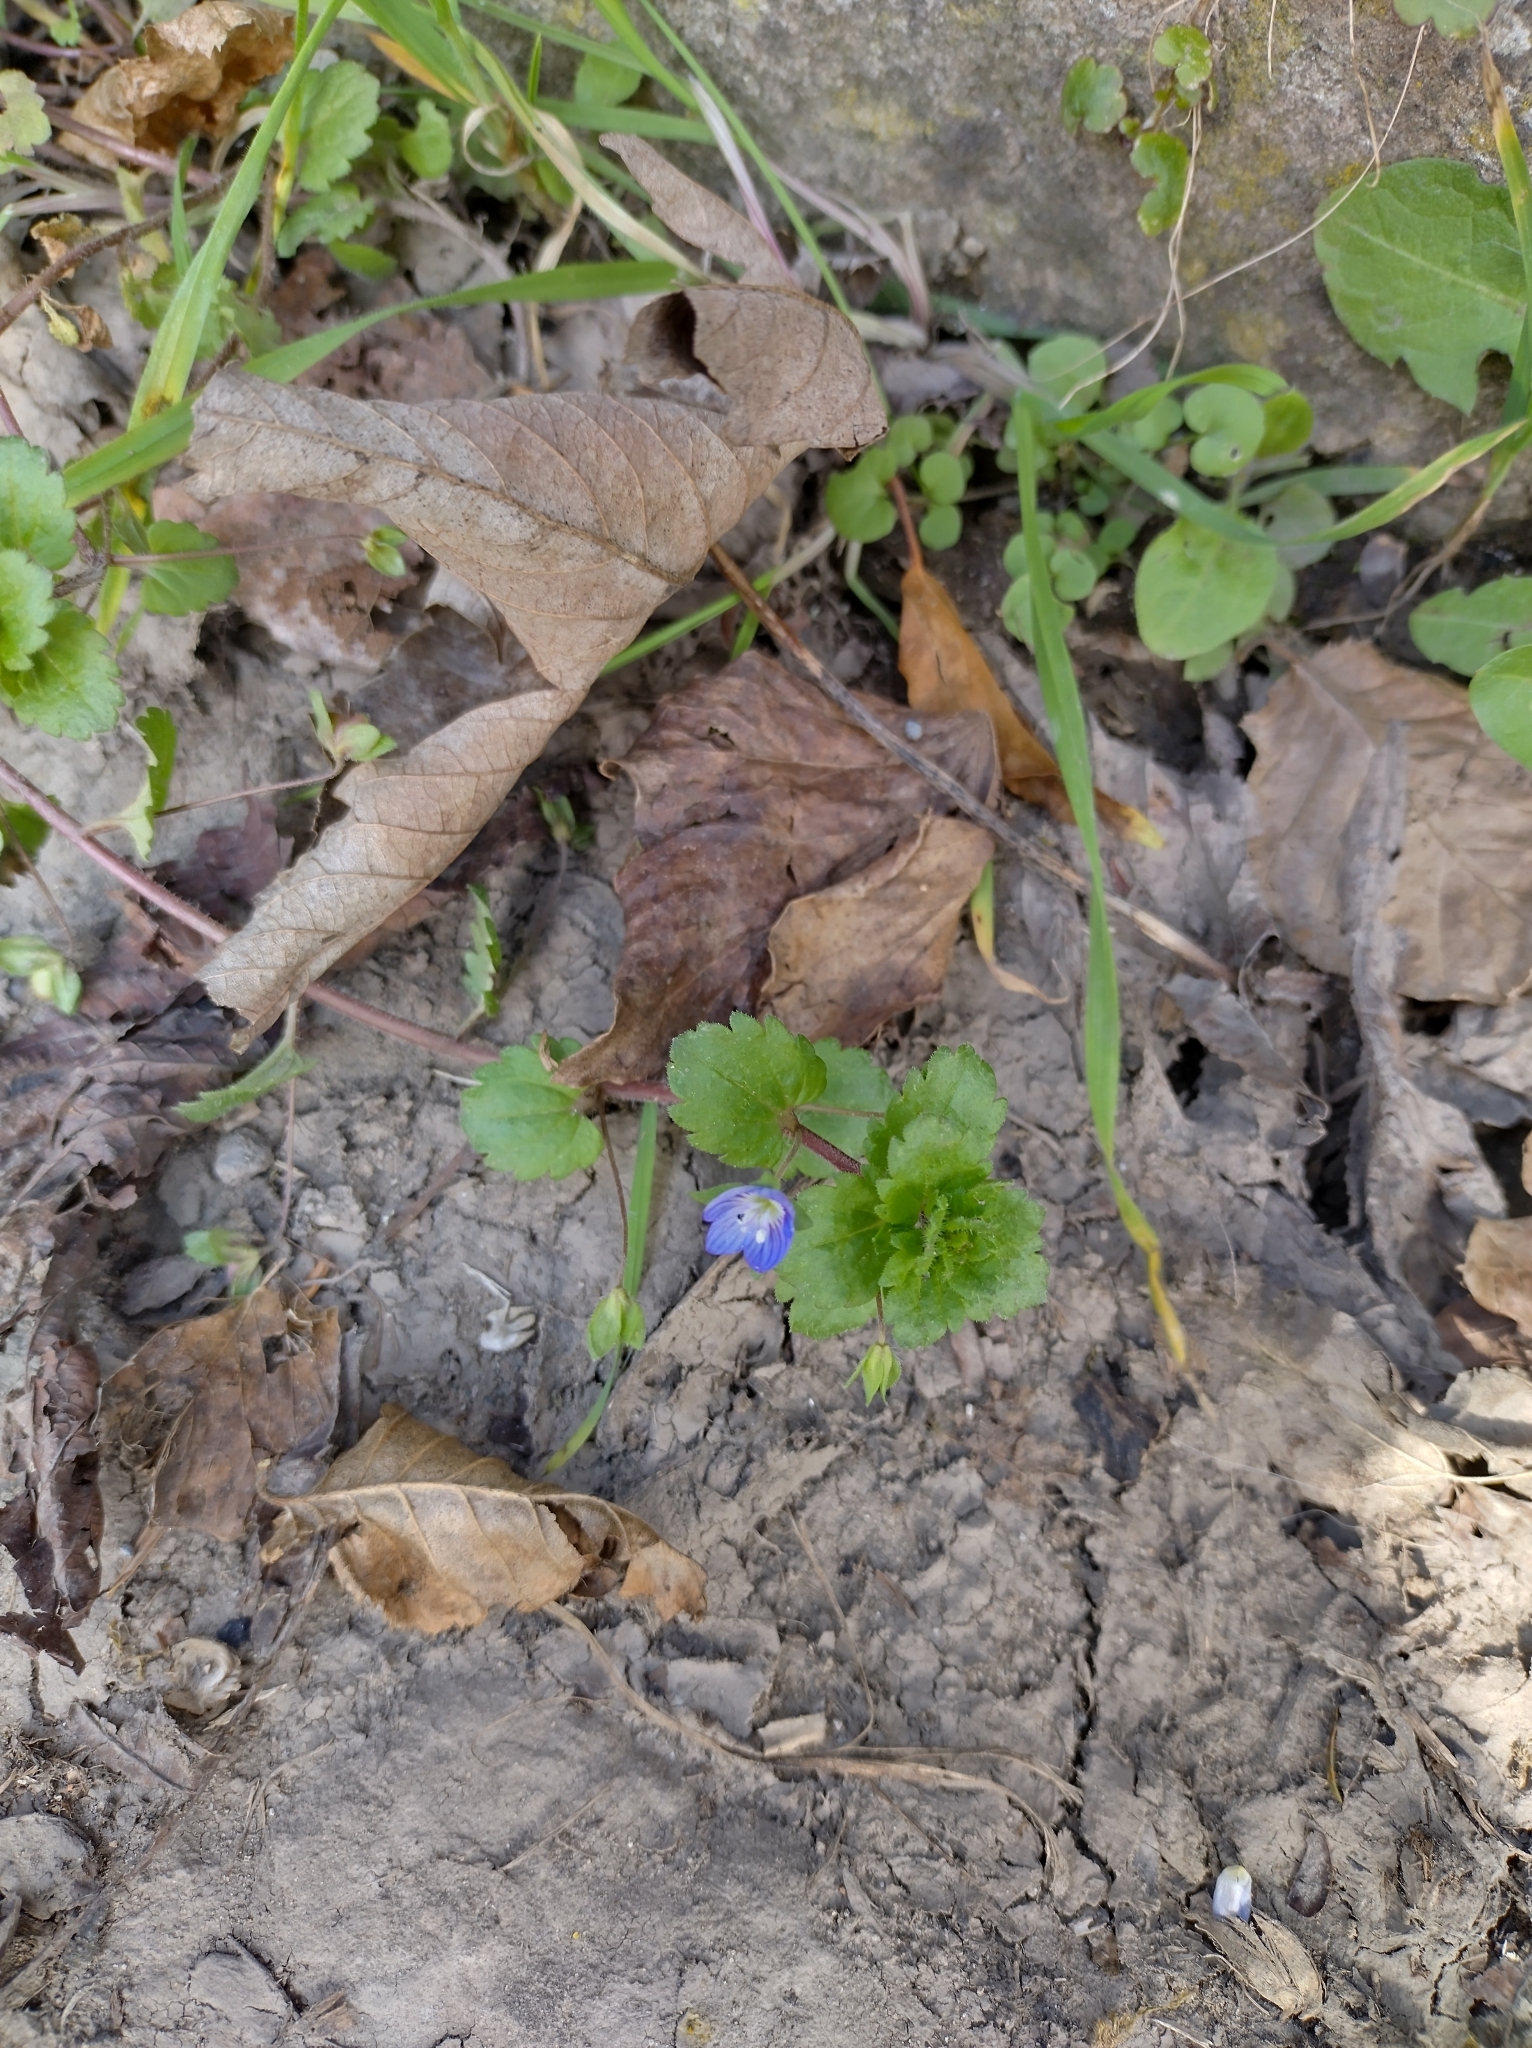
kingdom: Plantae
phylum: Tracheophyta
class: Magnoliopsida
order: Lamiales
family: Plantaginaceae
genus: Veronica
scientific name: Veronica persica
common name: Common field-speedwell
